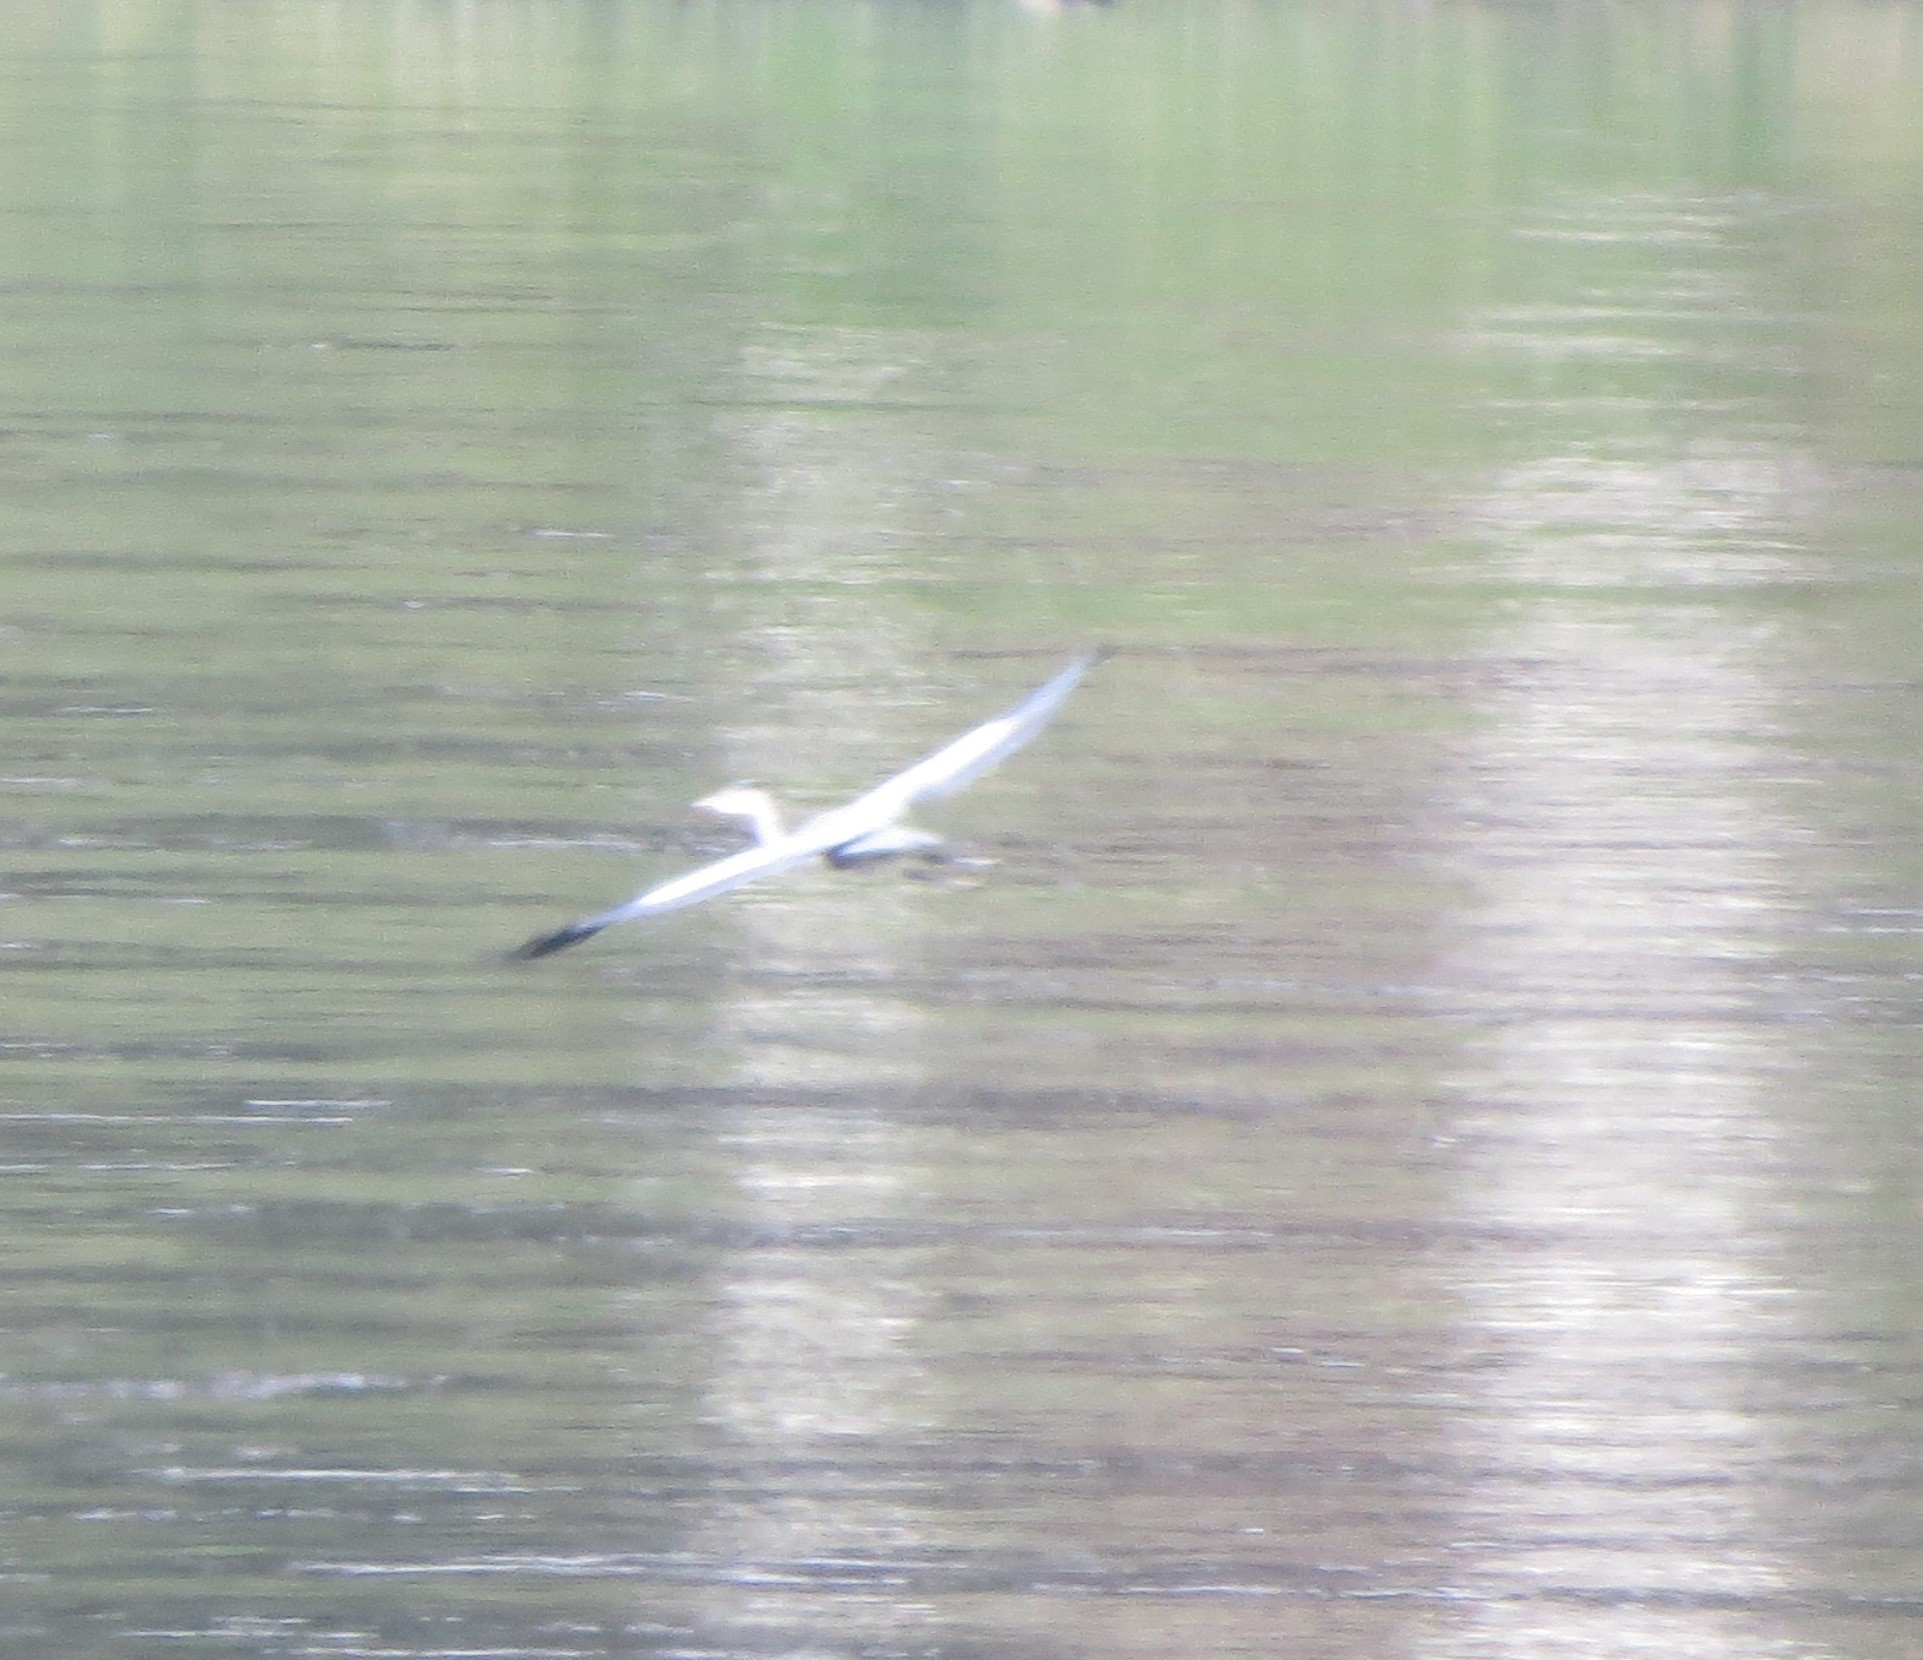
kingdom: Animalia
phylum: Chordata
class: Aves
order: Pelecaniformes
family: Ardeidae
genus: Ardea
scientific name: Ardea cinerea
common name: Grey heron
